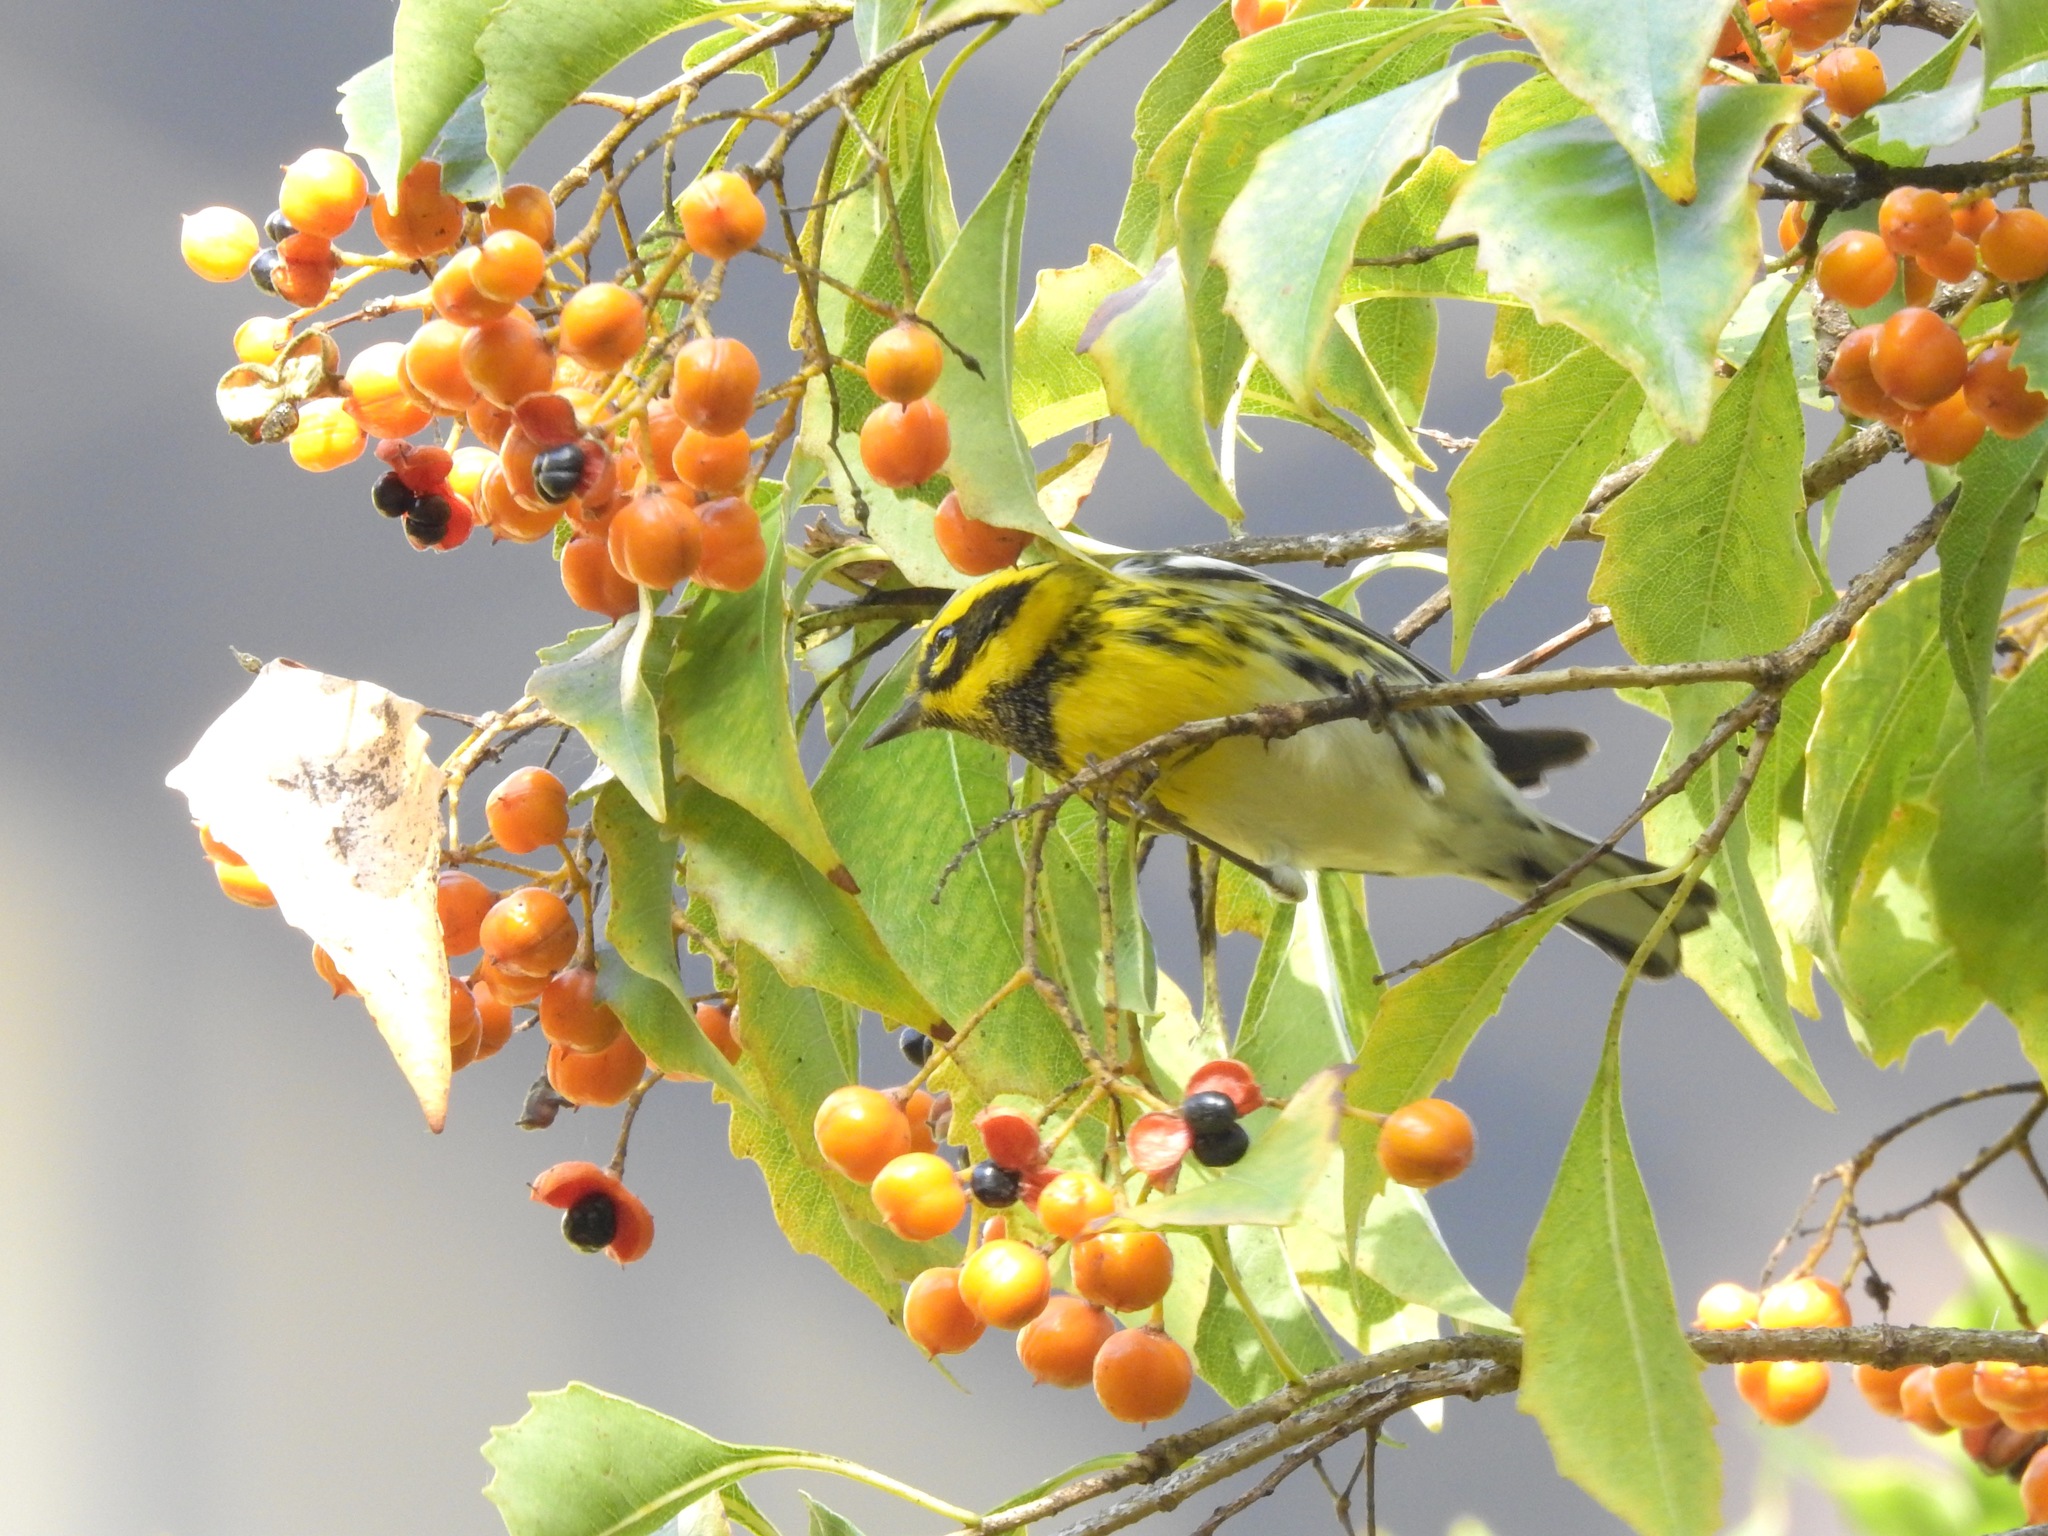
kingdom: Animalia
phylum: Chordata
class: Aves
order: Passeriformes
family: Parulidae
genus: Setophaga
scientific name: Setophaga townsendi
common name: Townsend's warbler
